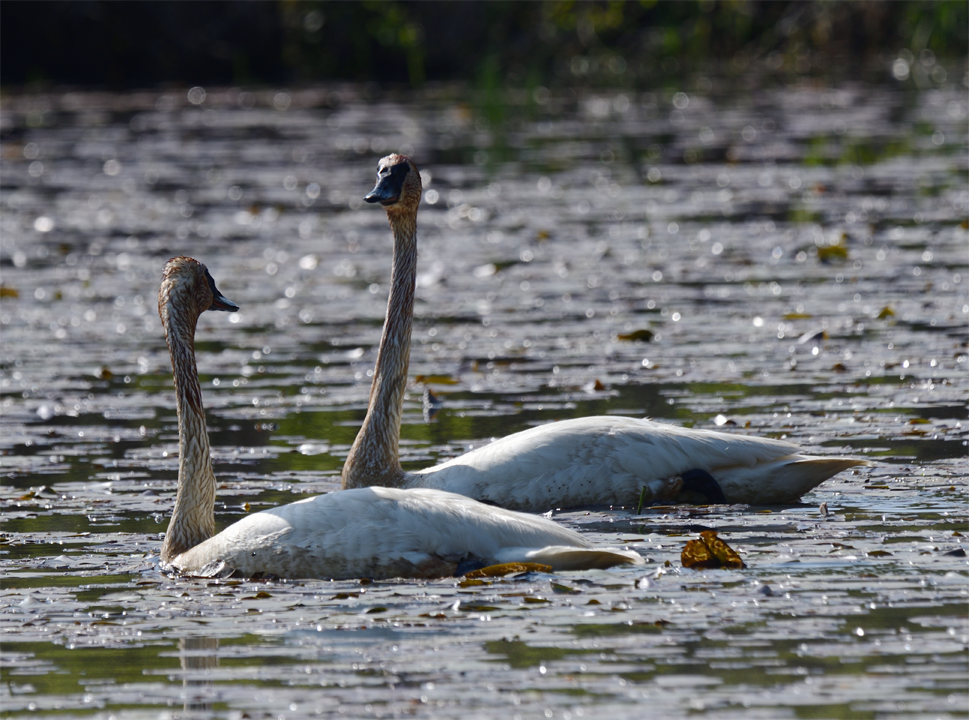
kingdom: Animalia
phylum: Chordata
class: Aves
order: Anseriformes
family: Anatidae
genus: Cygnus
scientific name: Cygnus buccinator
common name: Trumpeter swan
